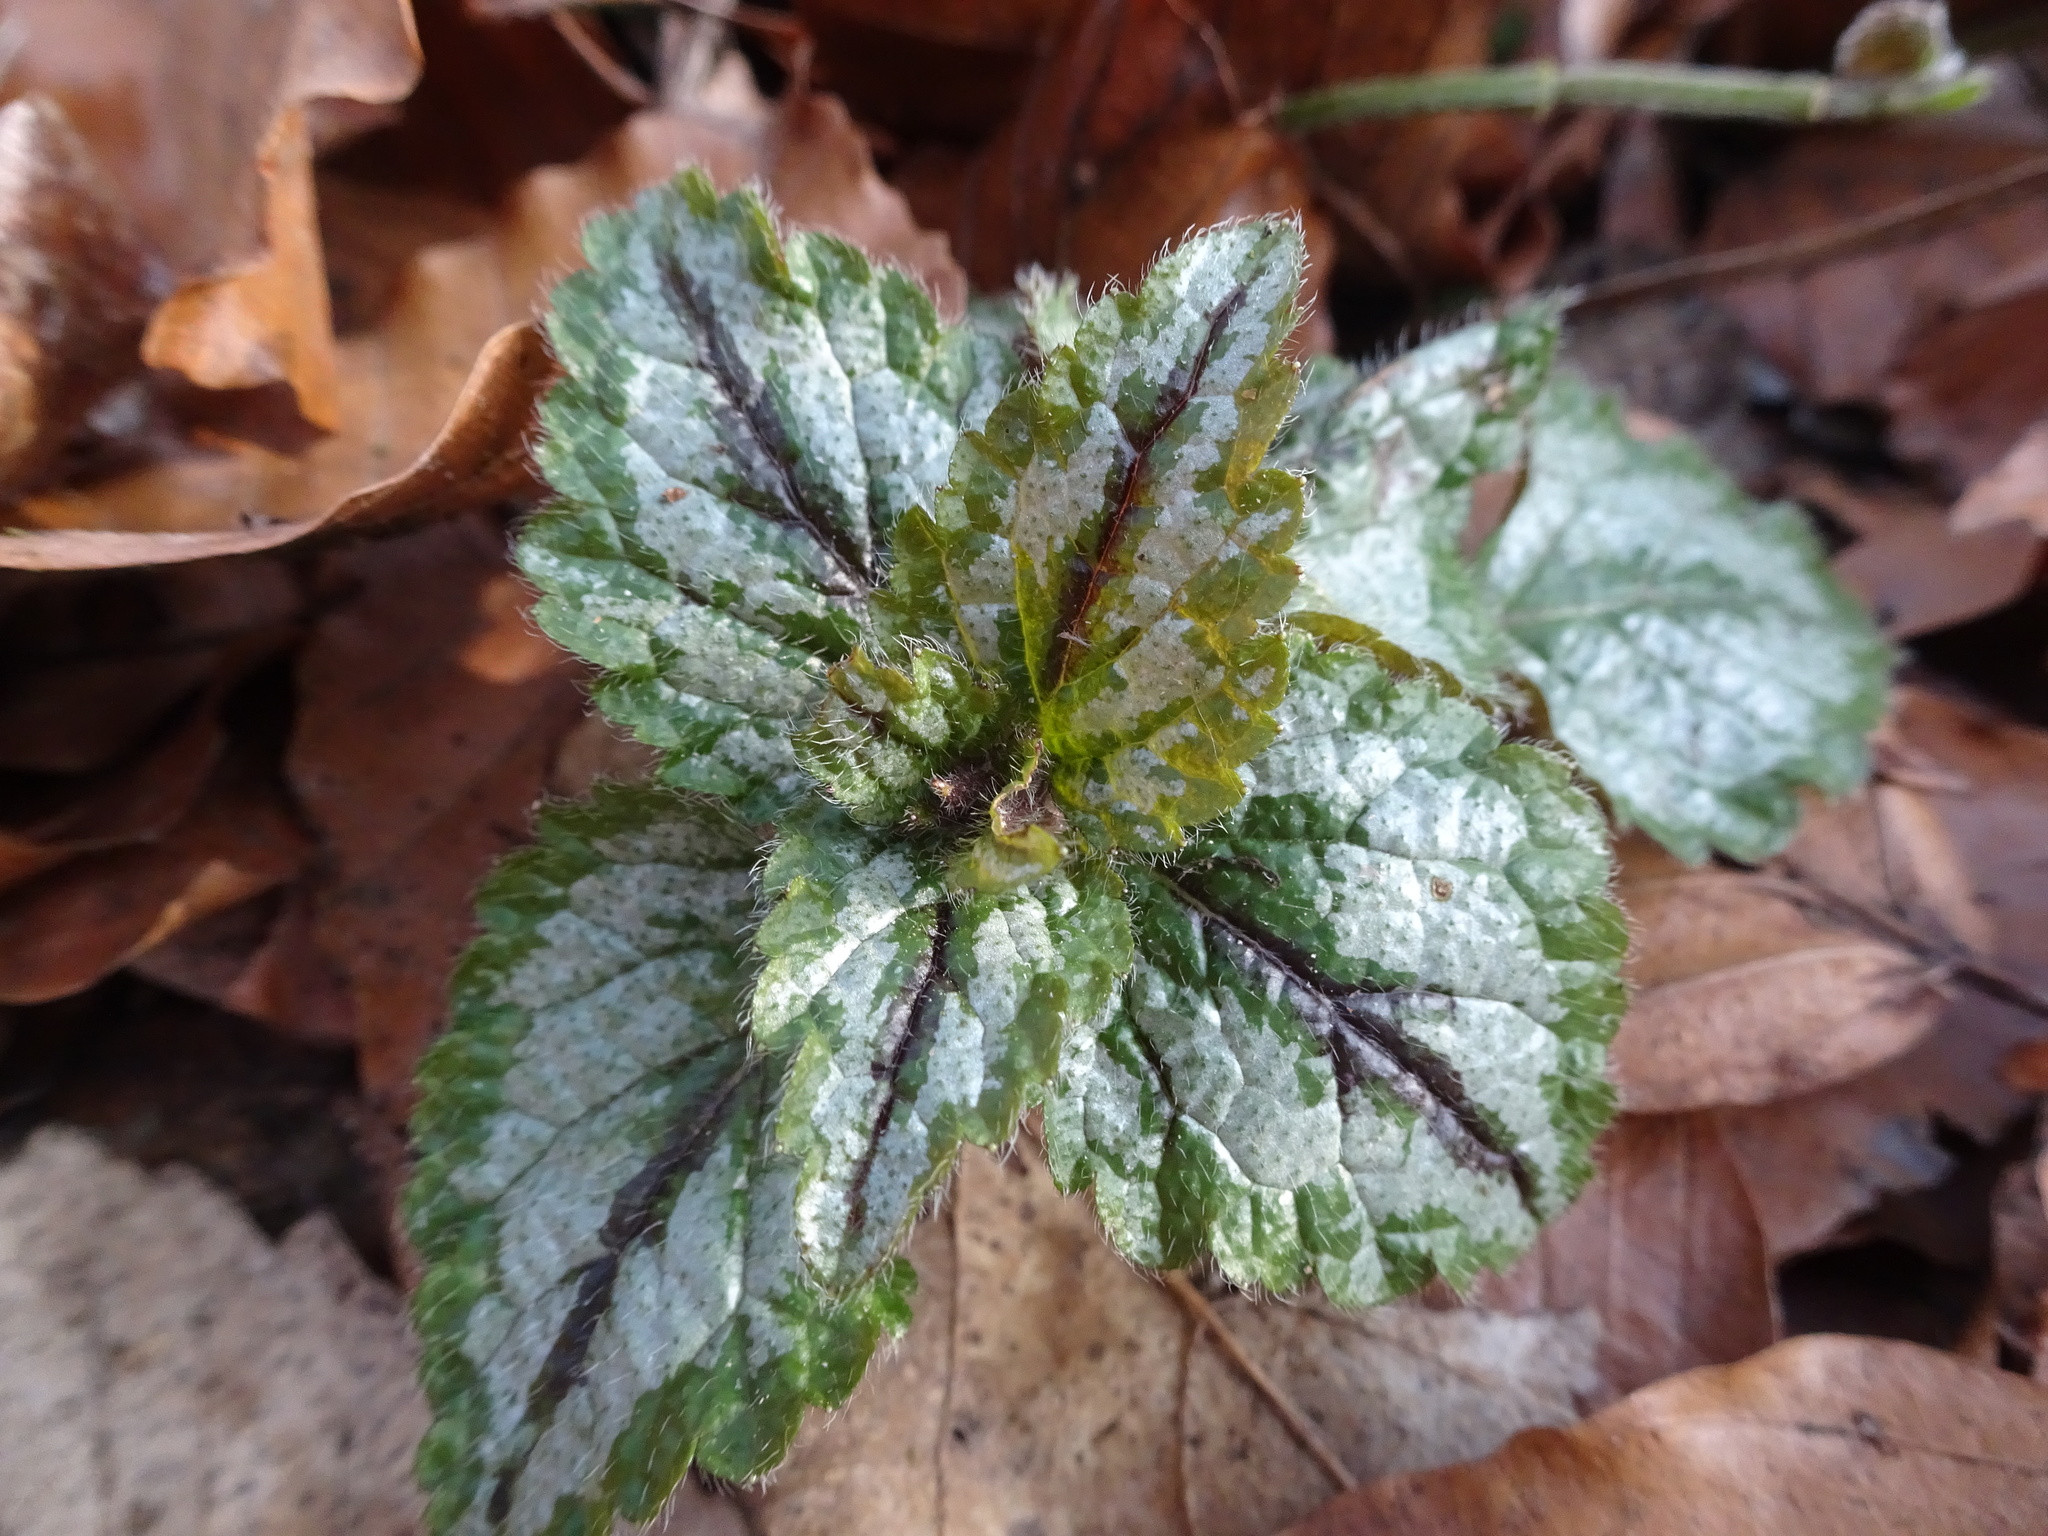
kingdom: Plantae
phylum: Tracheophyta
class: Magnoliopsida
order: Lamiales
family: Lamiaceae
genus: Lamium
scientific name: Lamium galeobdolon
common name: Yellow archangel
